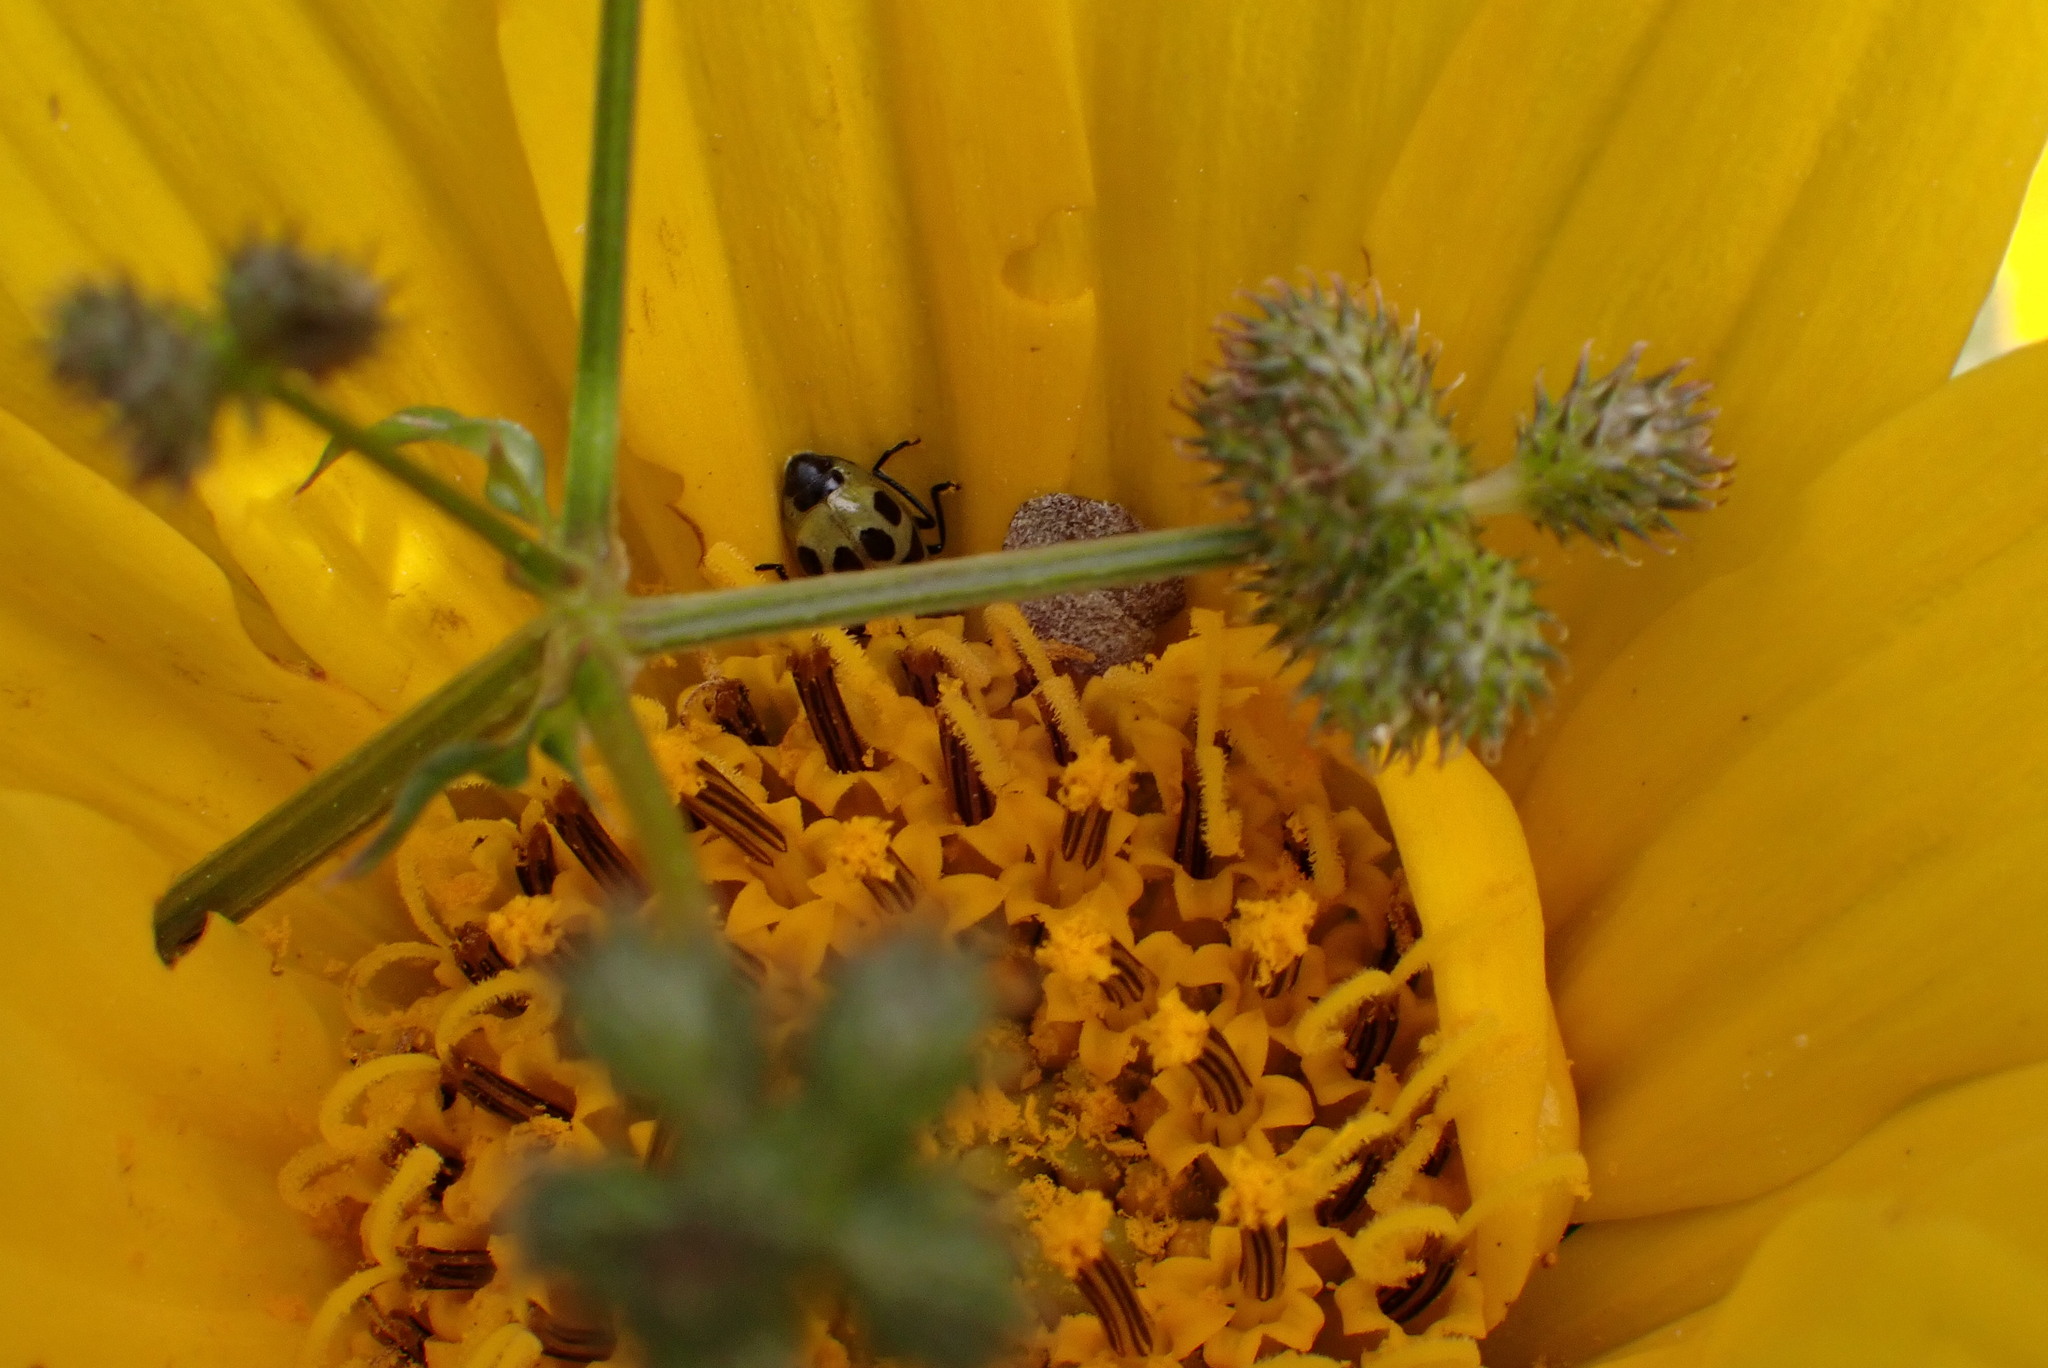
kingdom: Animalia
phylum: Arthropoda
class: Insecta
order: Coleoptera
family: Chrysomelidae
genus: Diabrotica
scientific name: Diabrotica undecimpunctata
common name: Spotted cucumber beetle
